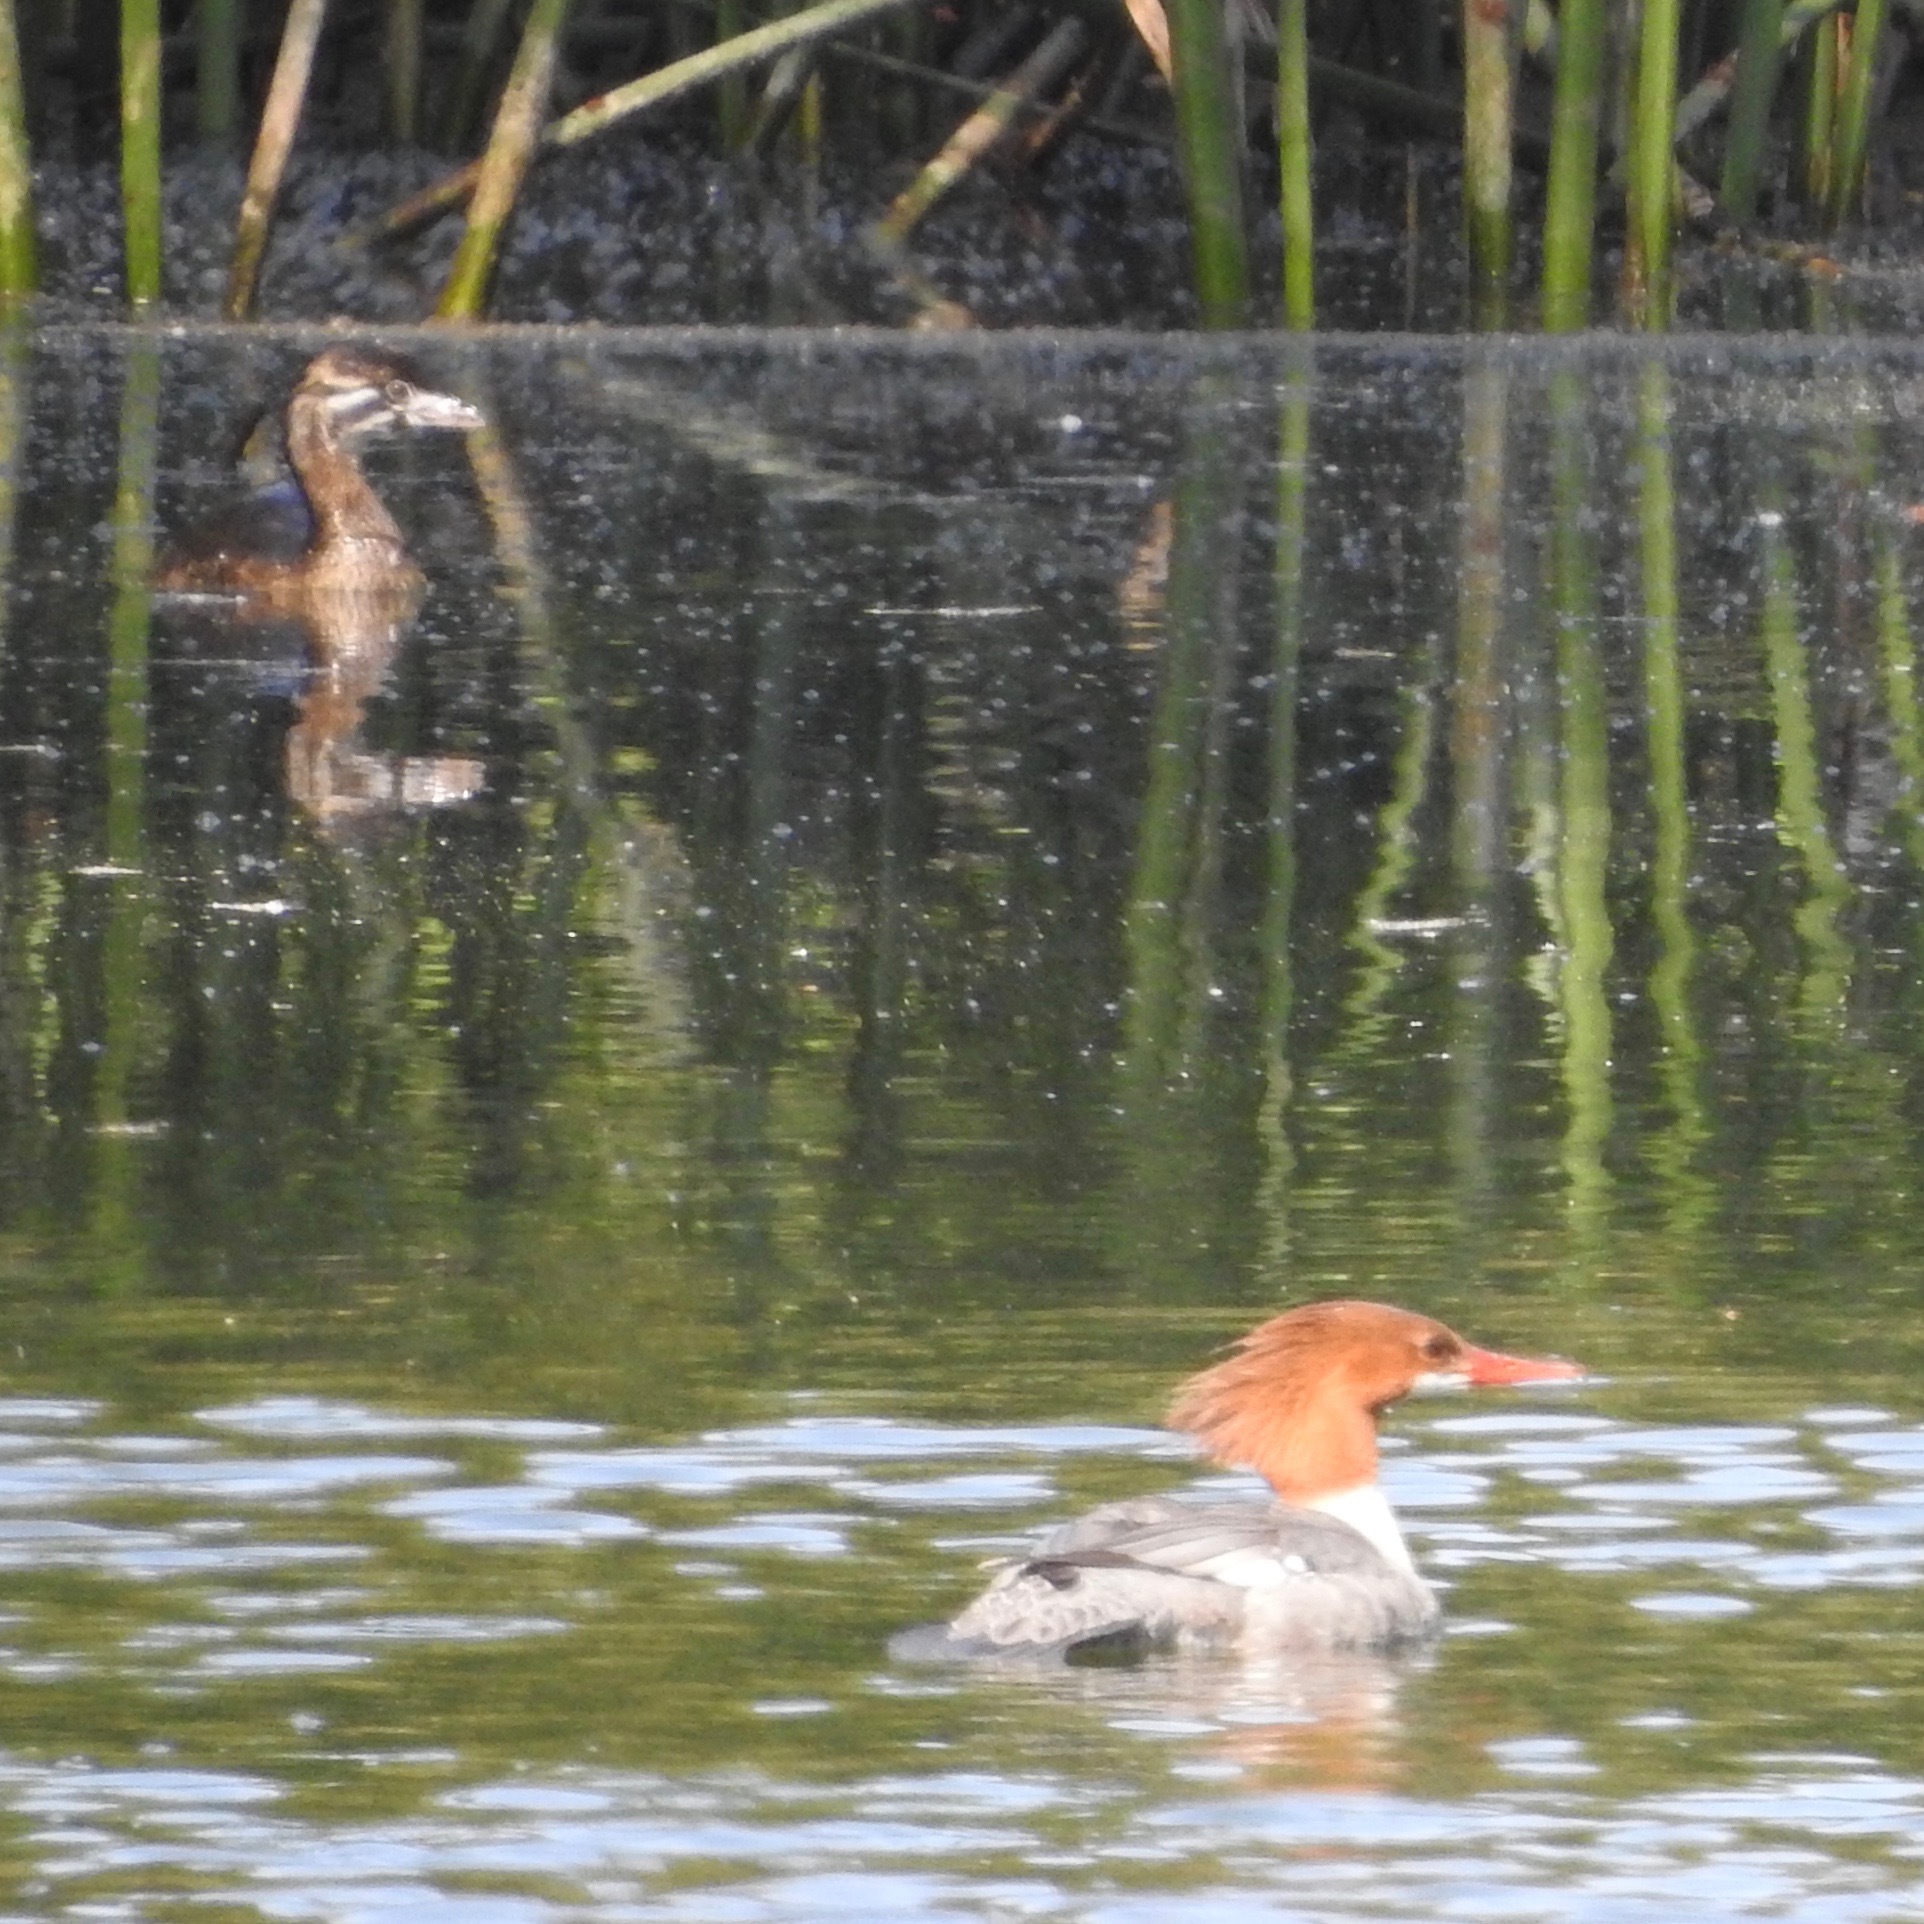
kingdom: Animalia
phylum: Chordata
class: Aves
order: Anseriformes
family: Anatidae
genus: Mergus
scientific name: Mergus merganser
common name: Common merganser
